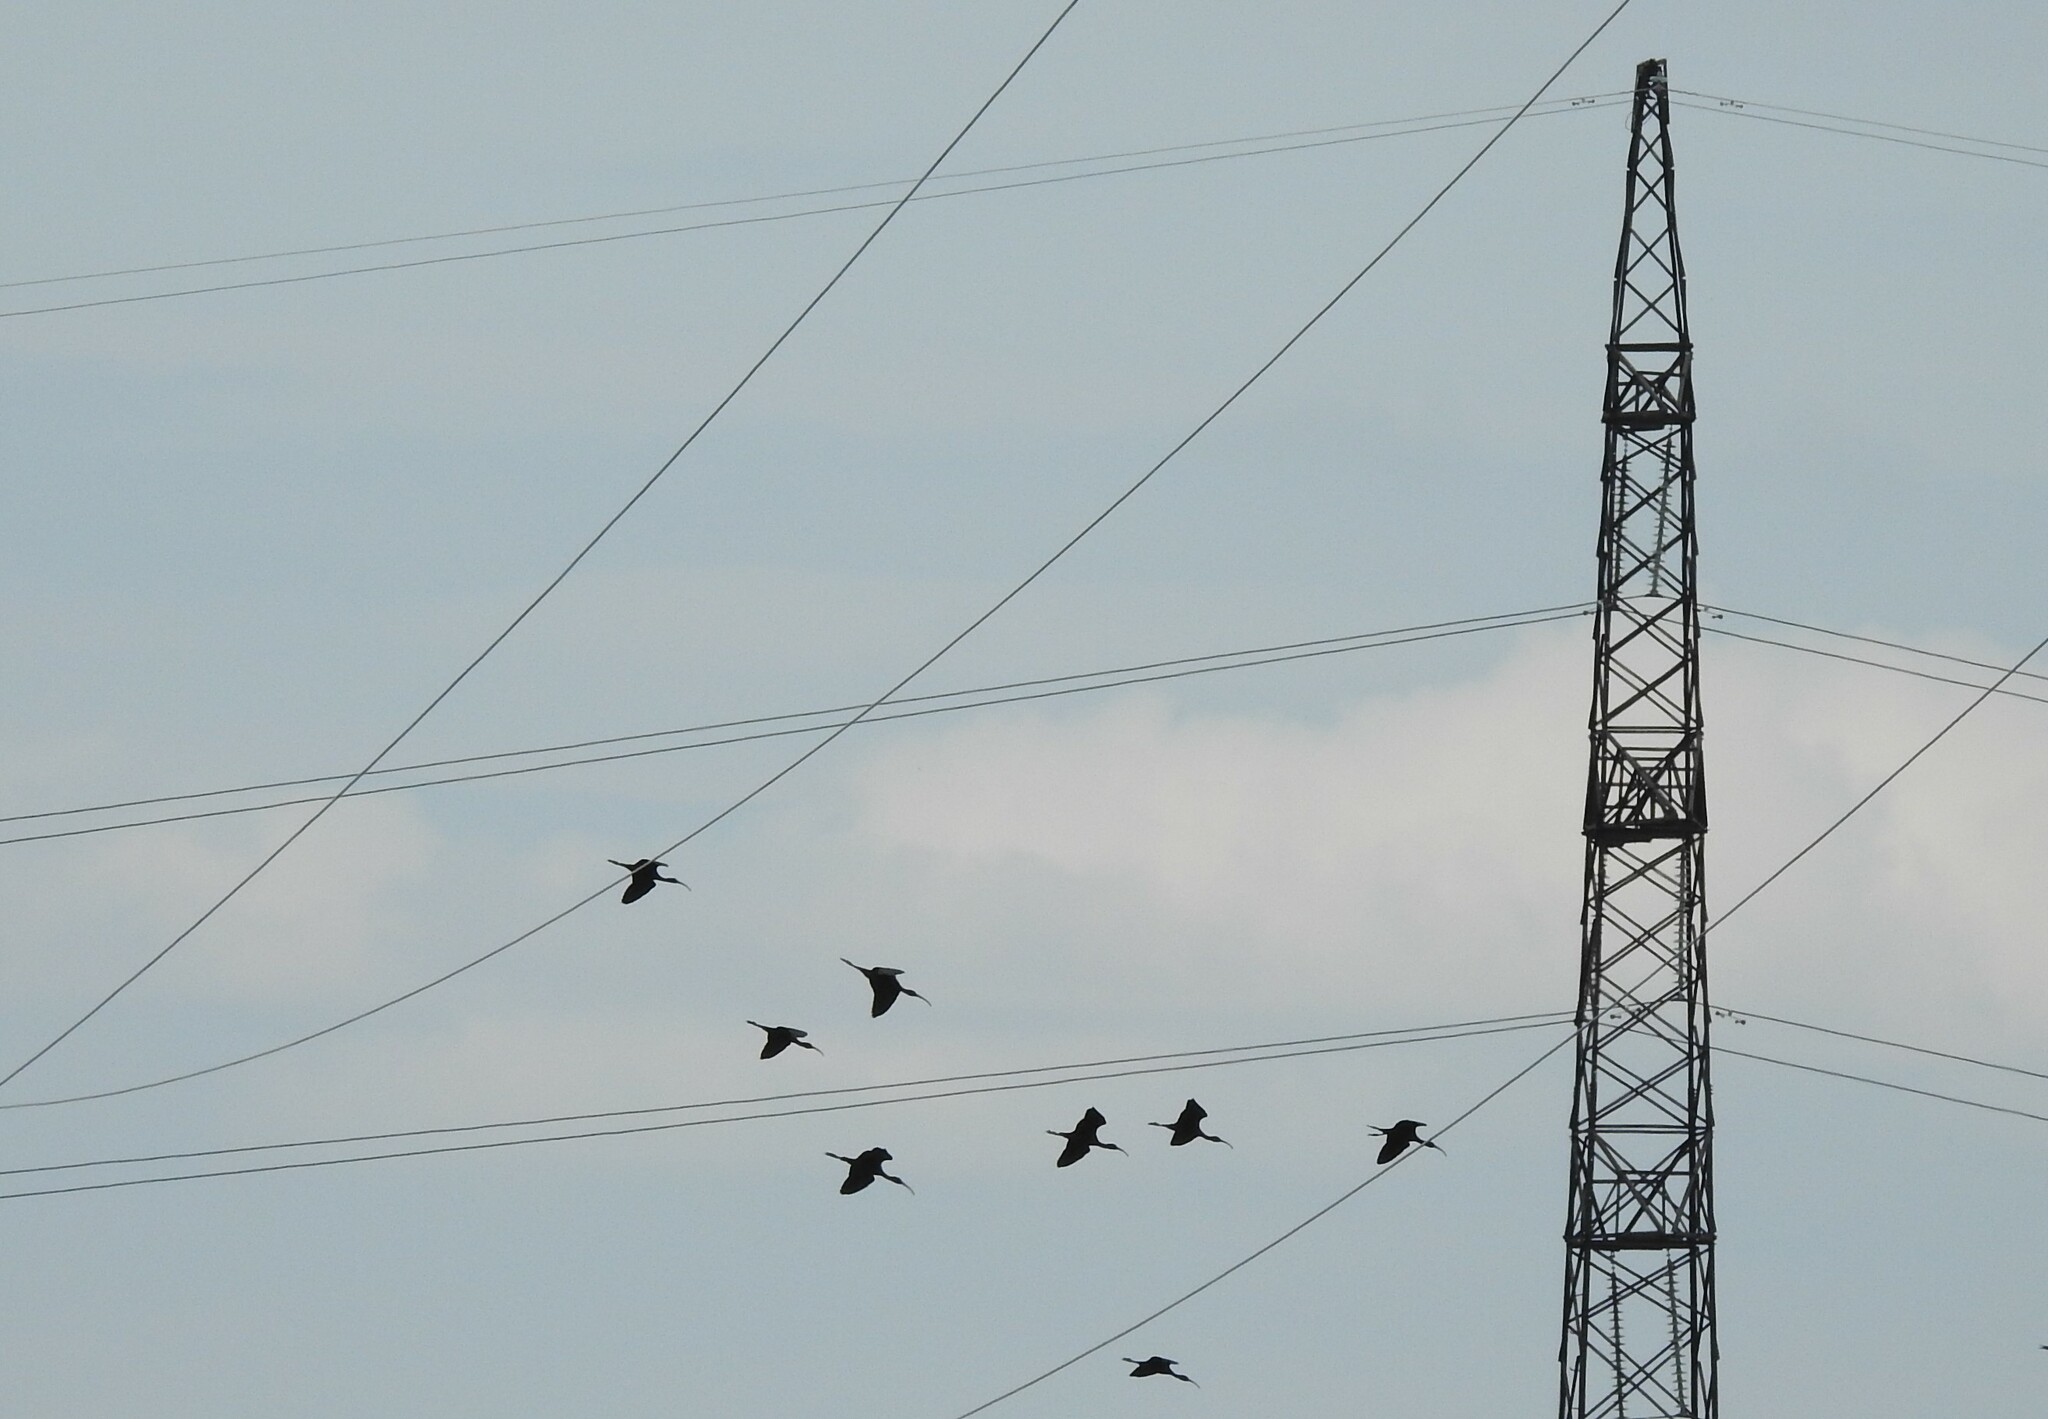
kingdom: Animalia
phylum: Chordata
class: Aves
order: Pelecaniformes
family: Threskiornithidae
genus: Plegadis
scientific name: Plegadis falcinellus
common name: Glossy ibis
